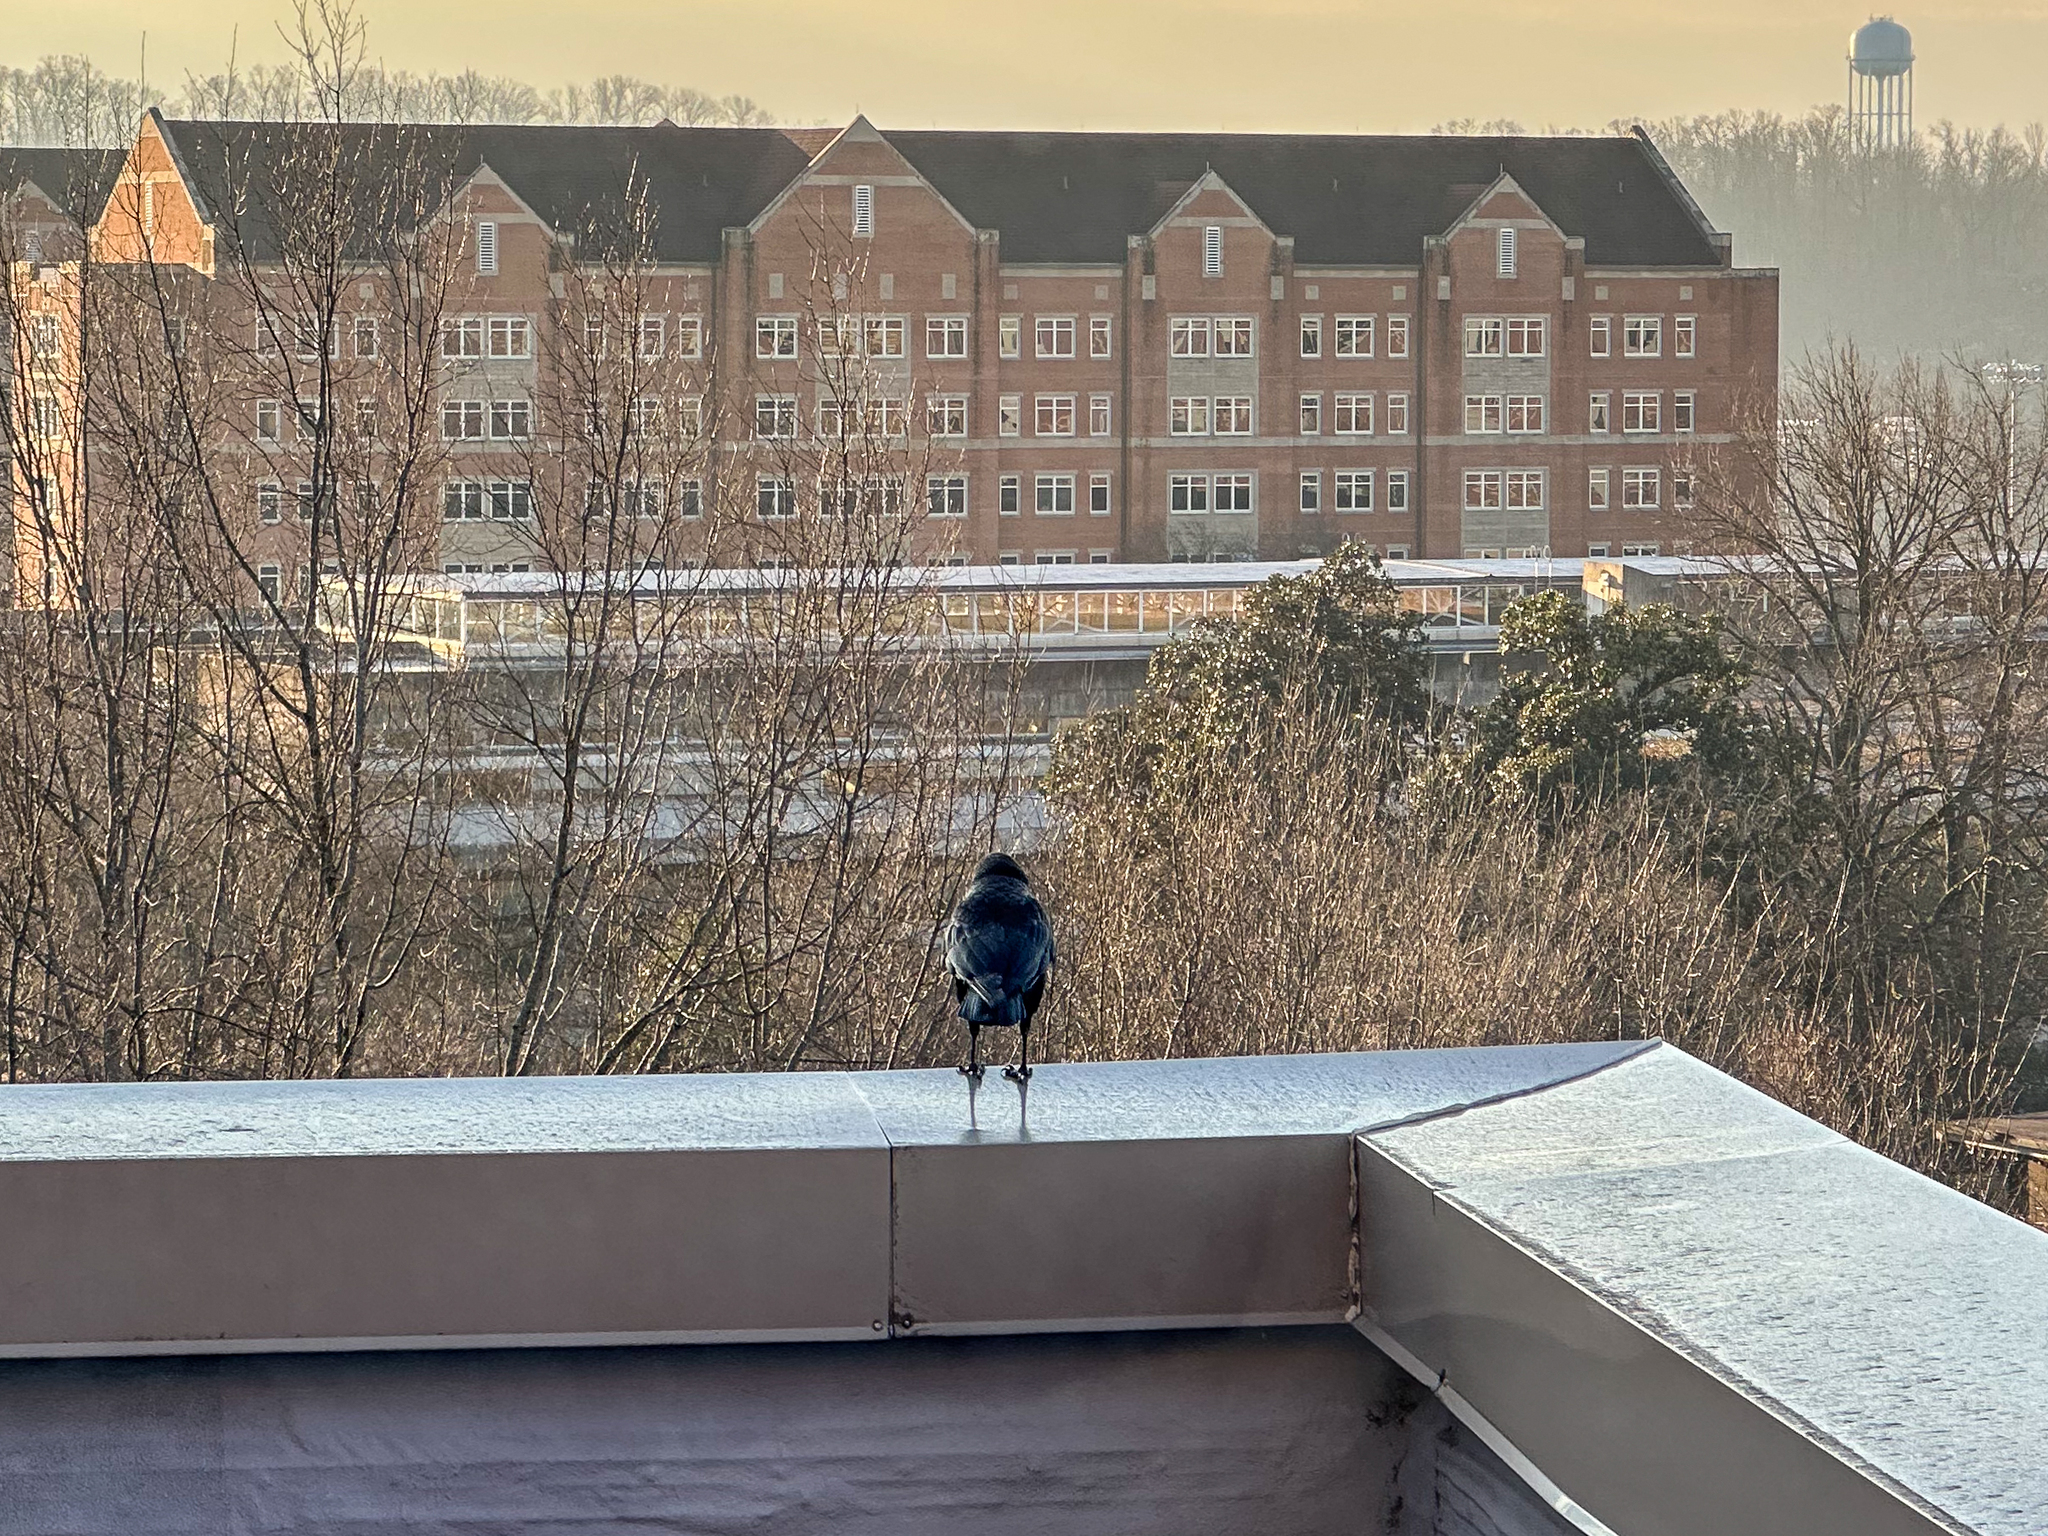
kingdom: Animalia
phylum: Chordata
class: Aves
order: Passeriformes
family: Corvidae
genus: Corvus
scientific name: Corvus brachyrhynchos
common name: American crow
